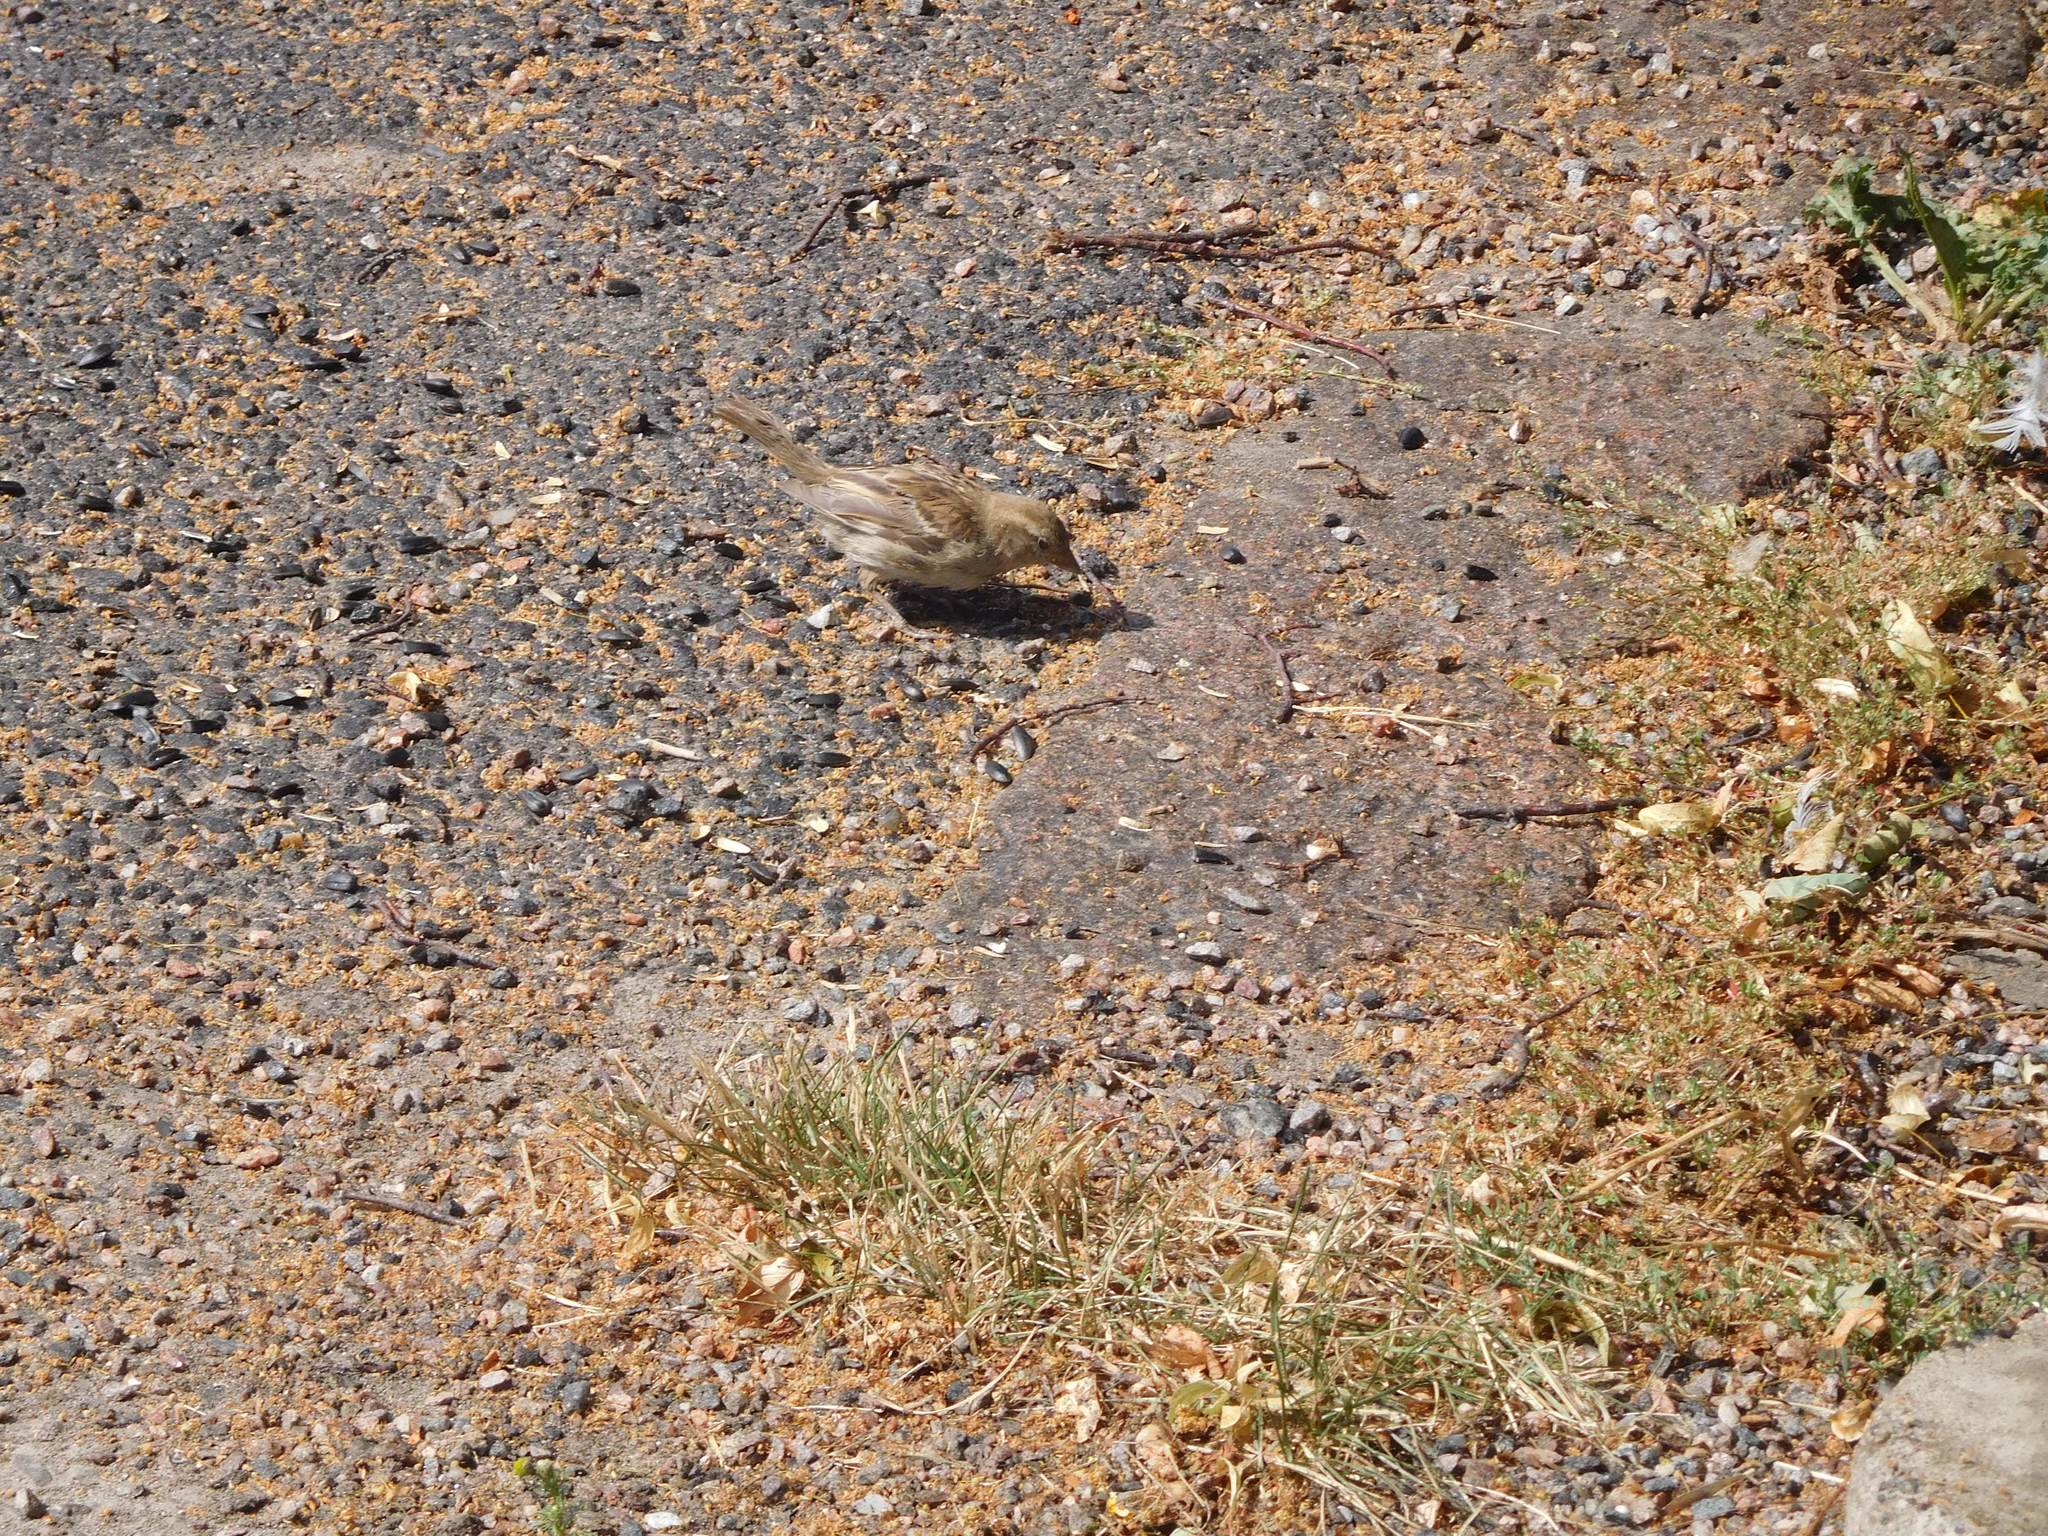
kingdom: Animalia
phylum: Chordata
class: Aves
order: Passeriformes
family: Passeridae
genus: Passer
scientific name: Passer domesticus
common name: House sparrow
